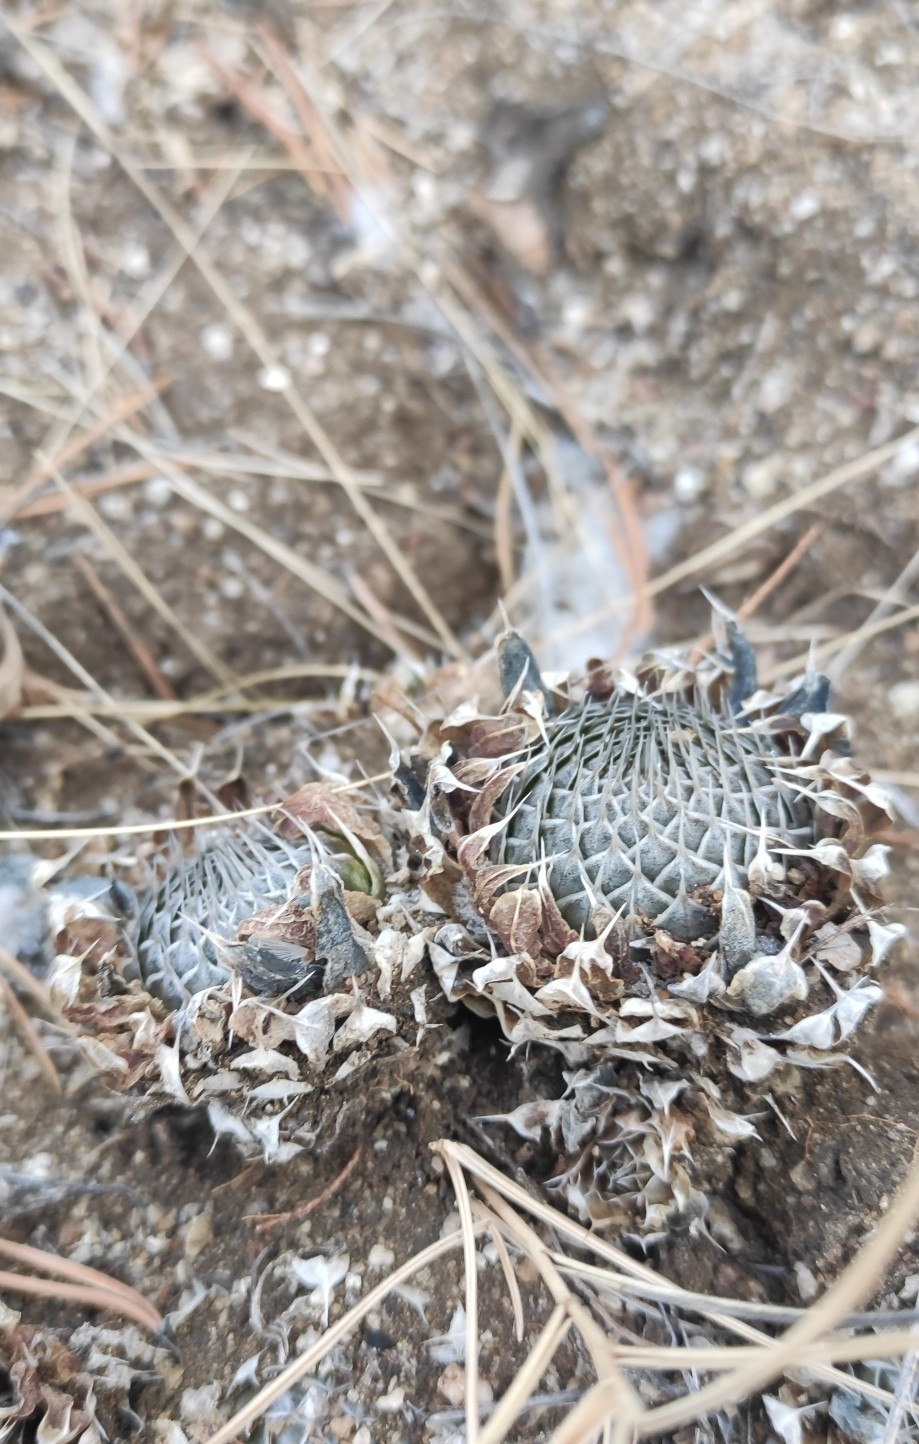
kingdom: Plantae
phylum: Tracheophyta
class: Magnoliopsida
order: Saxifragales
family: Crassulaceae
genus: Orostachys
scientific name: Orostachys spinosa
